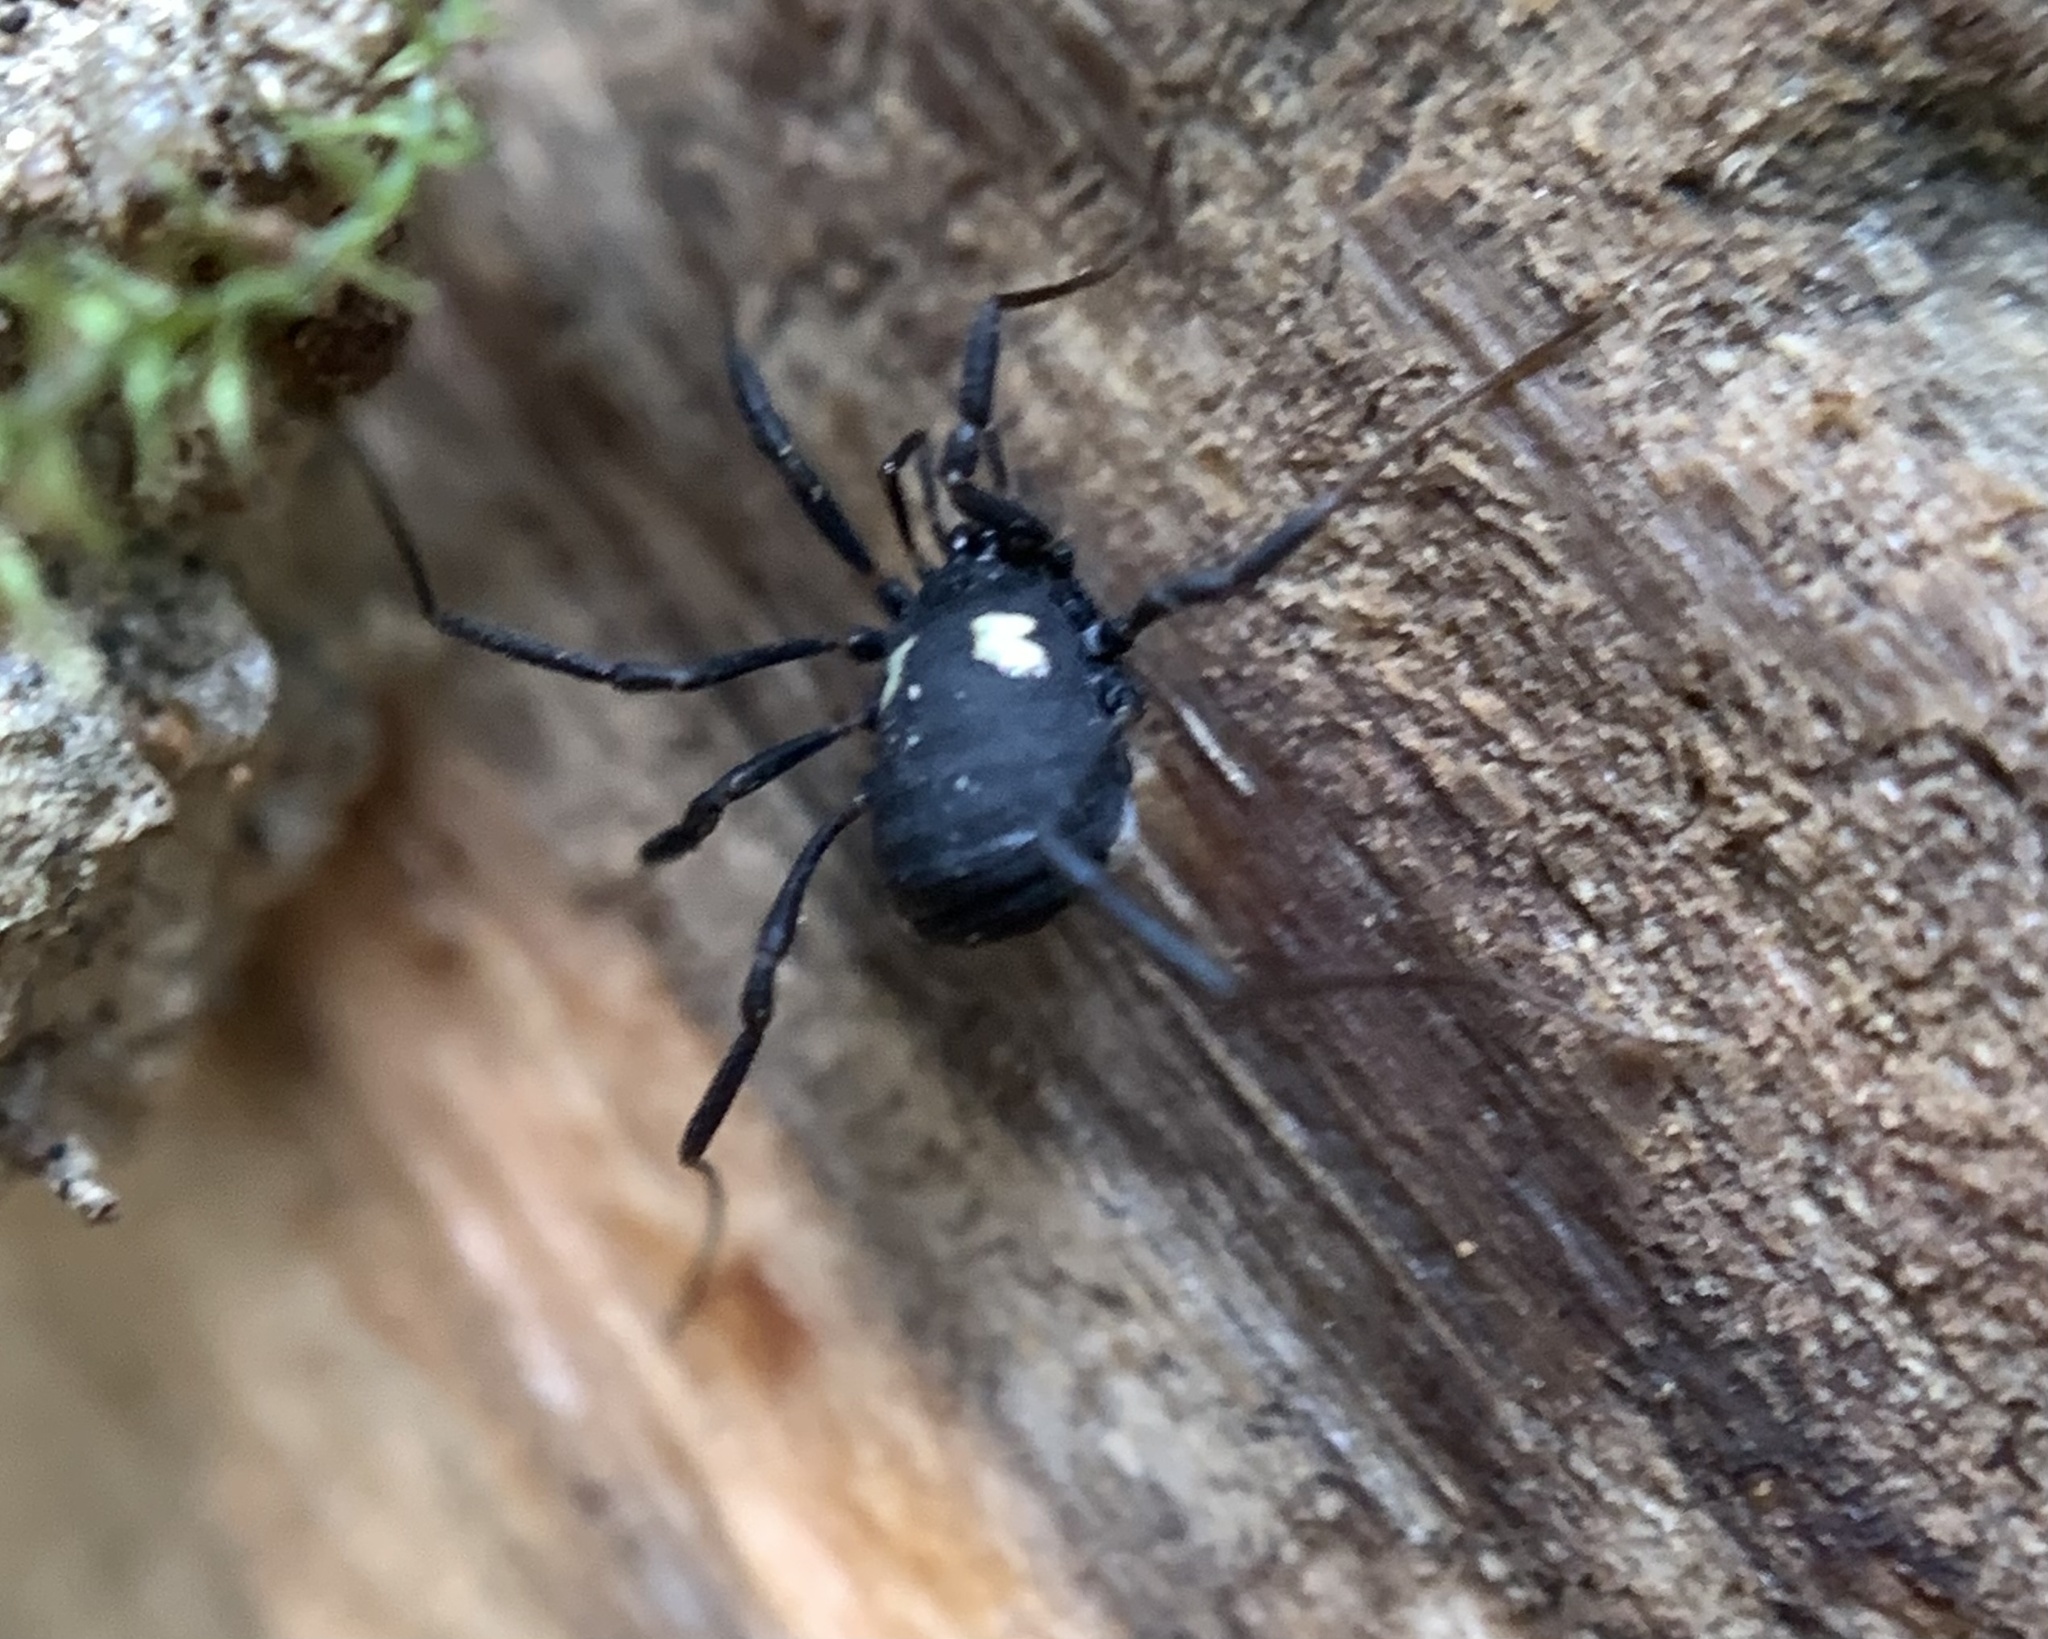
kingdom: Animalia
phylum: Arthropoda
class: Arachnida
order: Opiliones
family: Nemastomatidae
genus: Nemastoma
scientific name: Nemastoma bimaculatum
